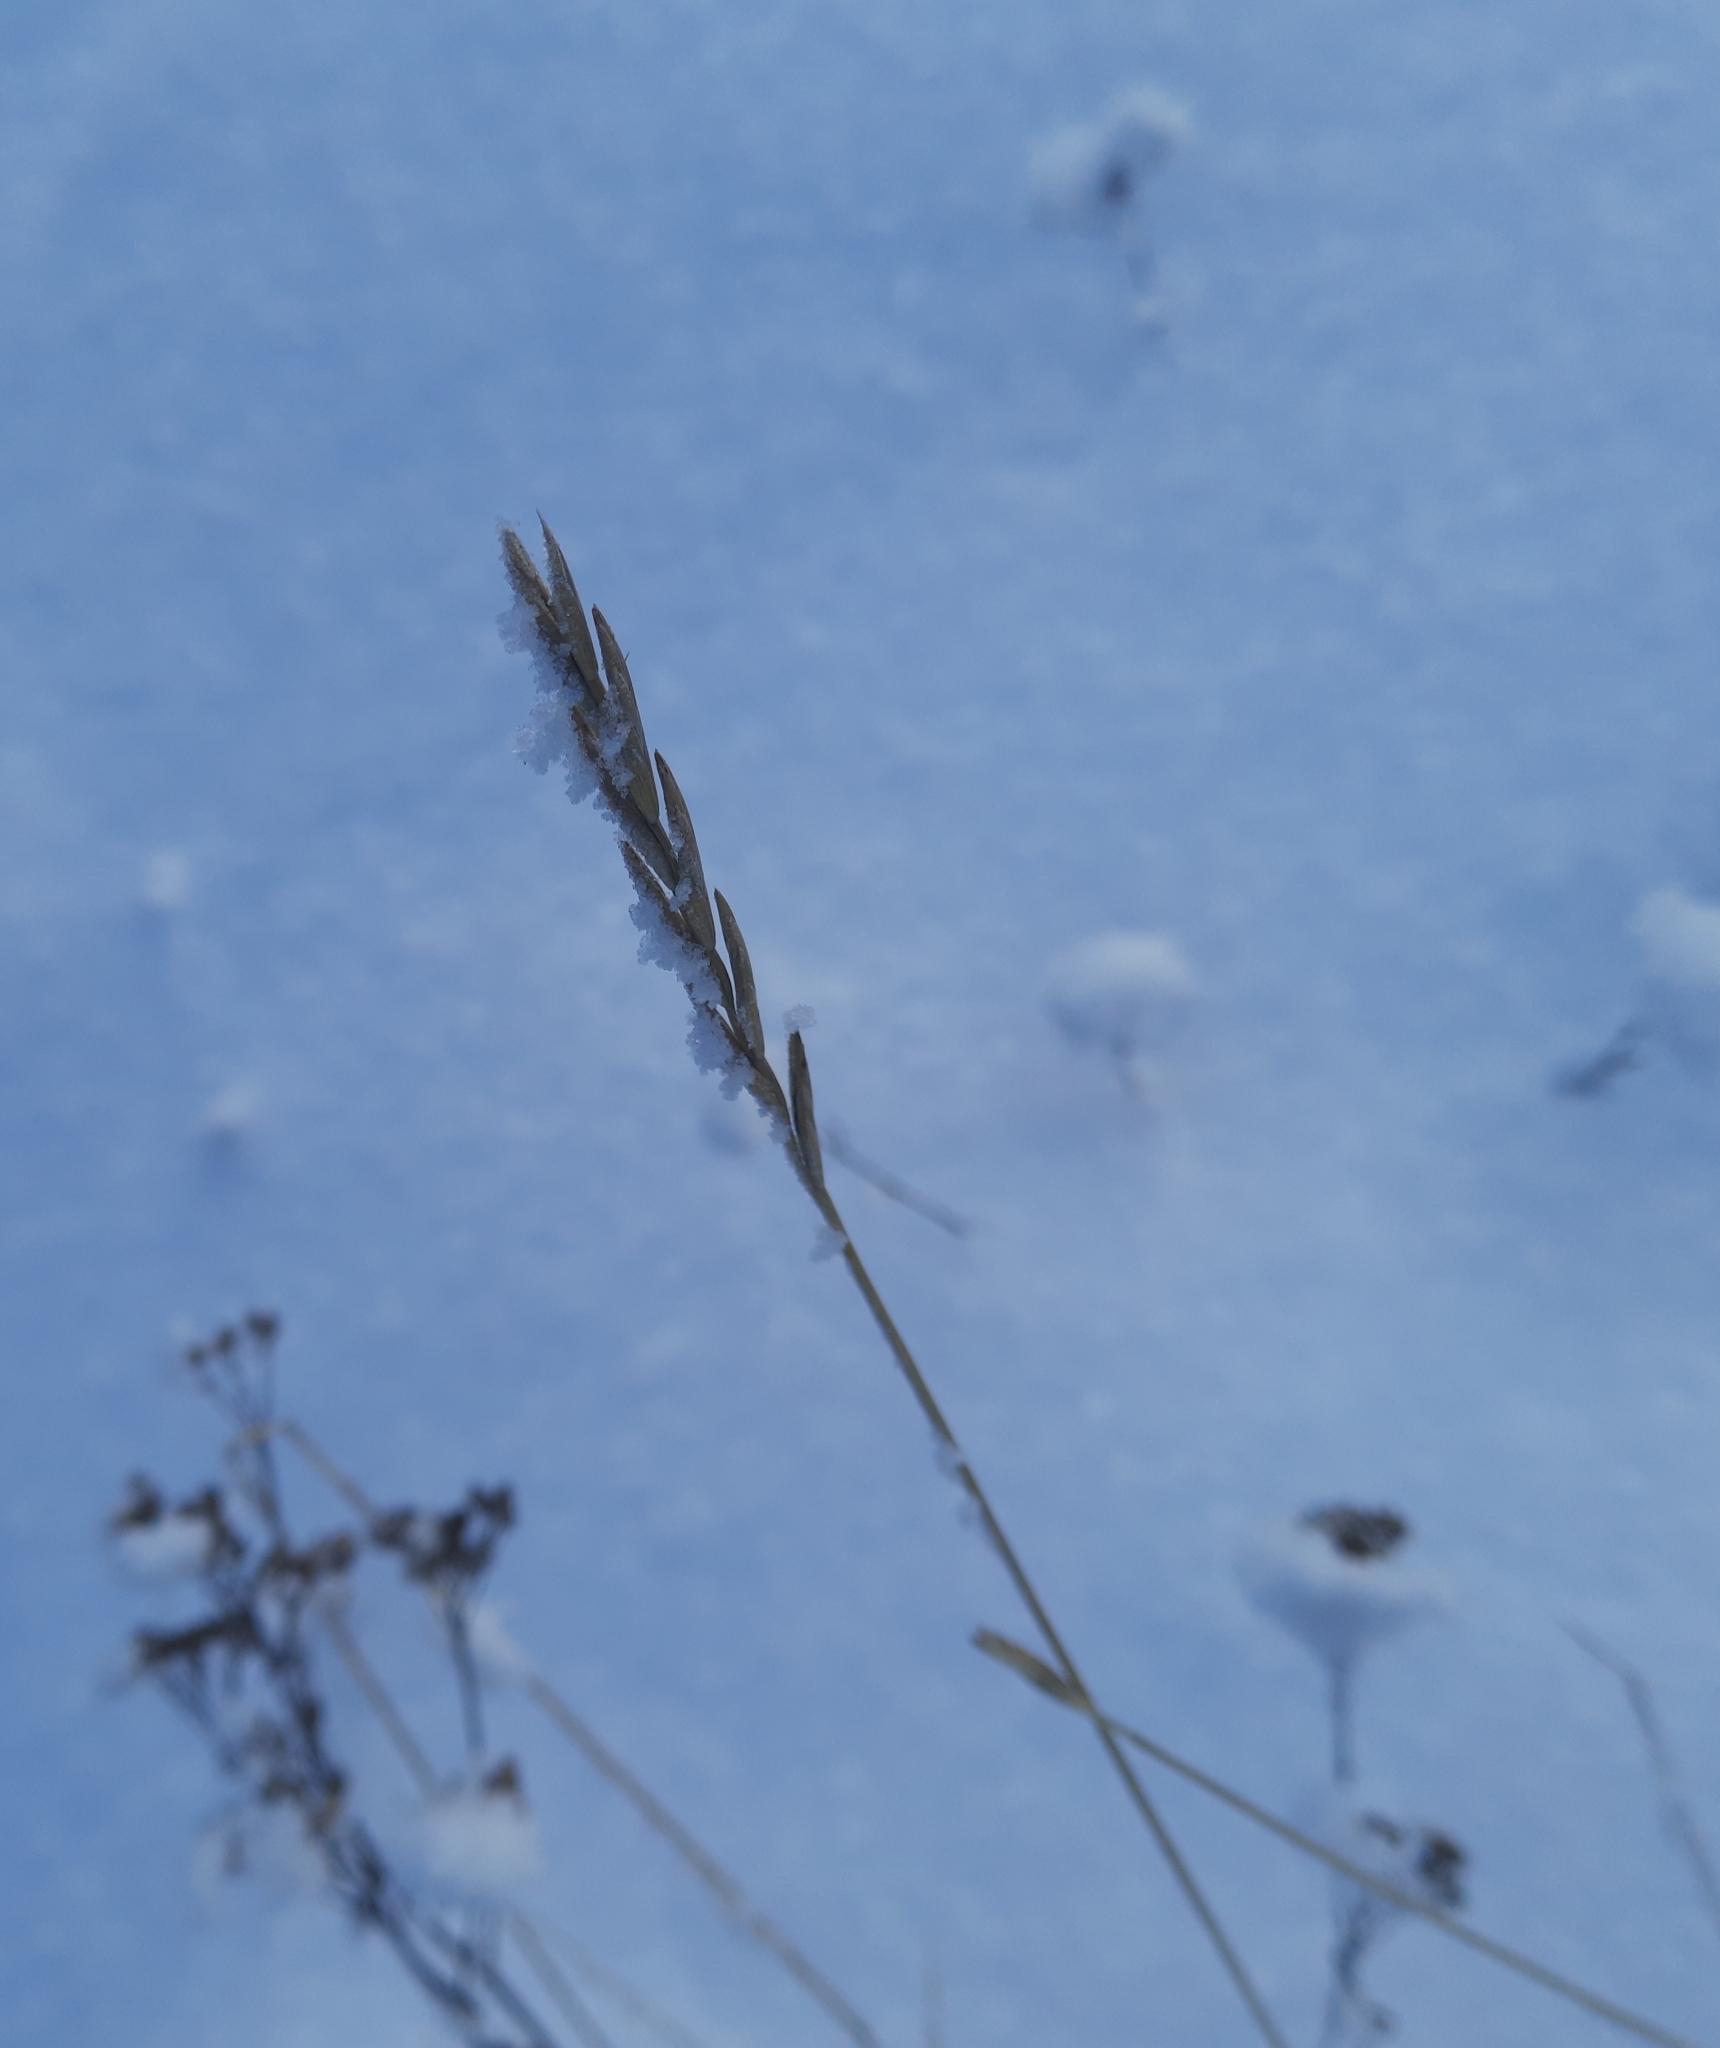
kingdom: Plantae
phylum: Tracheophyta
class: Liliopsida
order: Poales
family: Poaceae
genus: Elymus
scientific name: Elymus repens
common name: Quackgrass
